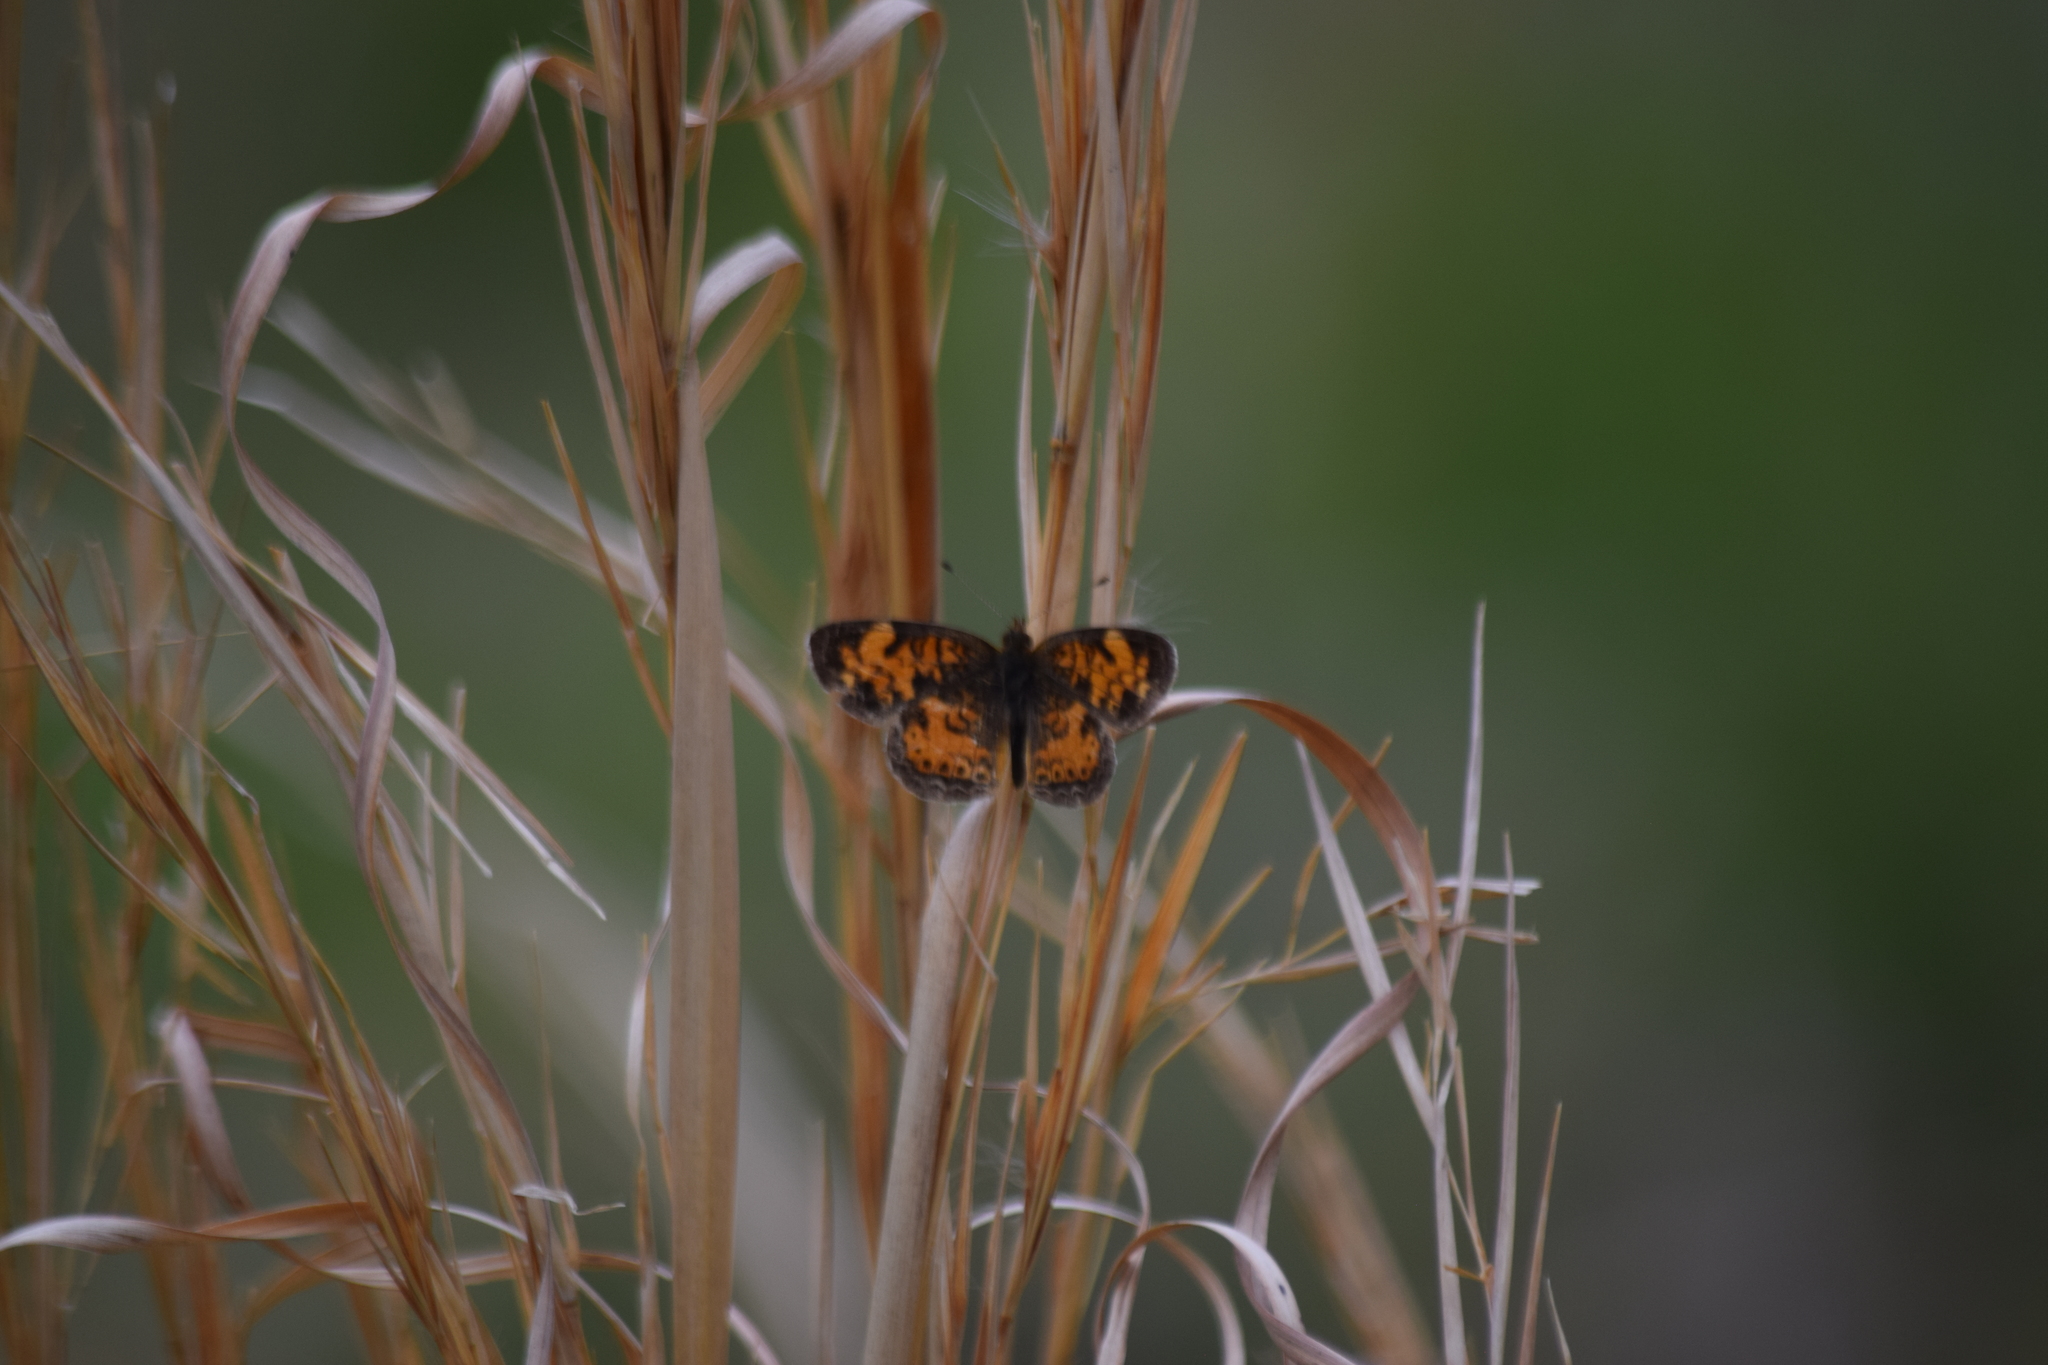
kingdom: Animalia
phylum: Arthropoda
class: Insecta
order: Lepidoptera
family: Nymphalidae
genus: Phyciodes
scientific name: Phyciodes tharos
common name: Pearl crescent
